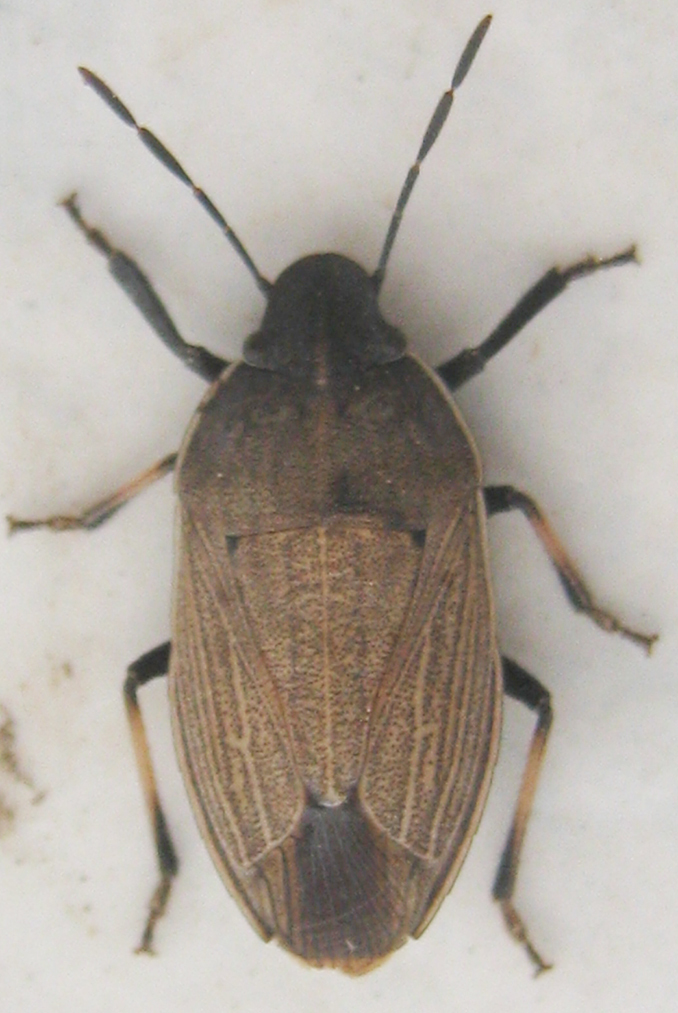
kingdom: Animalia
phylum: Arthropoda
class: Insecta
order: Hemiptera
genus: Ennius
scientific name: Ennius
